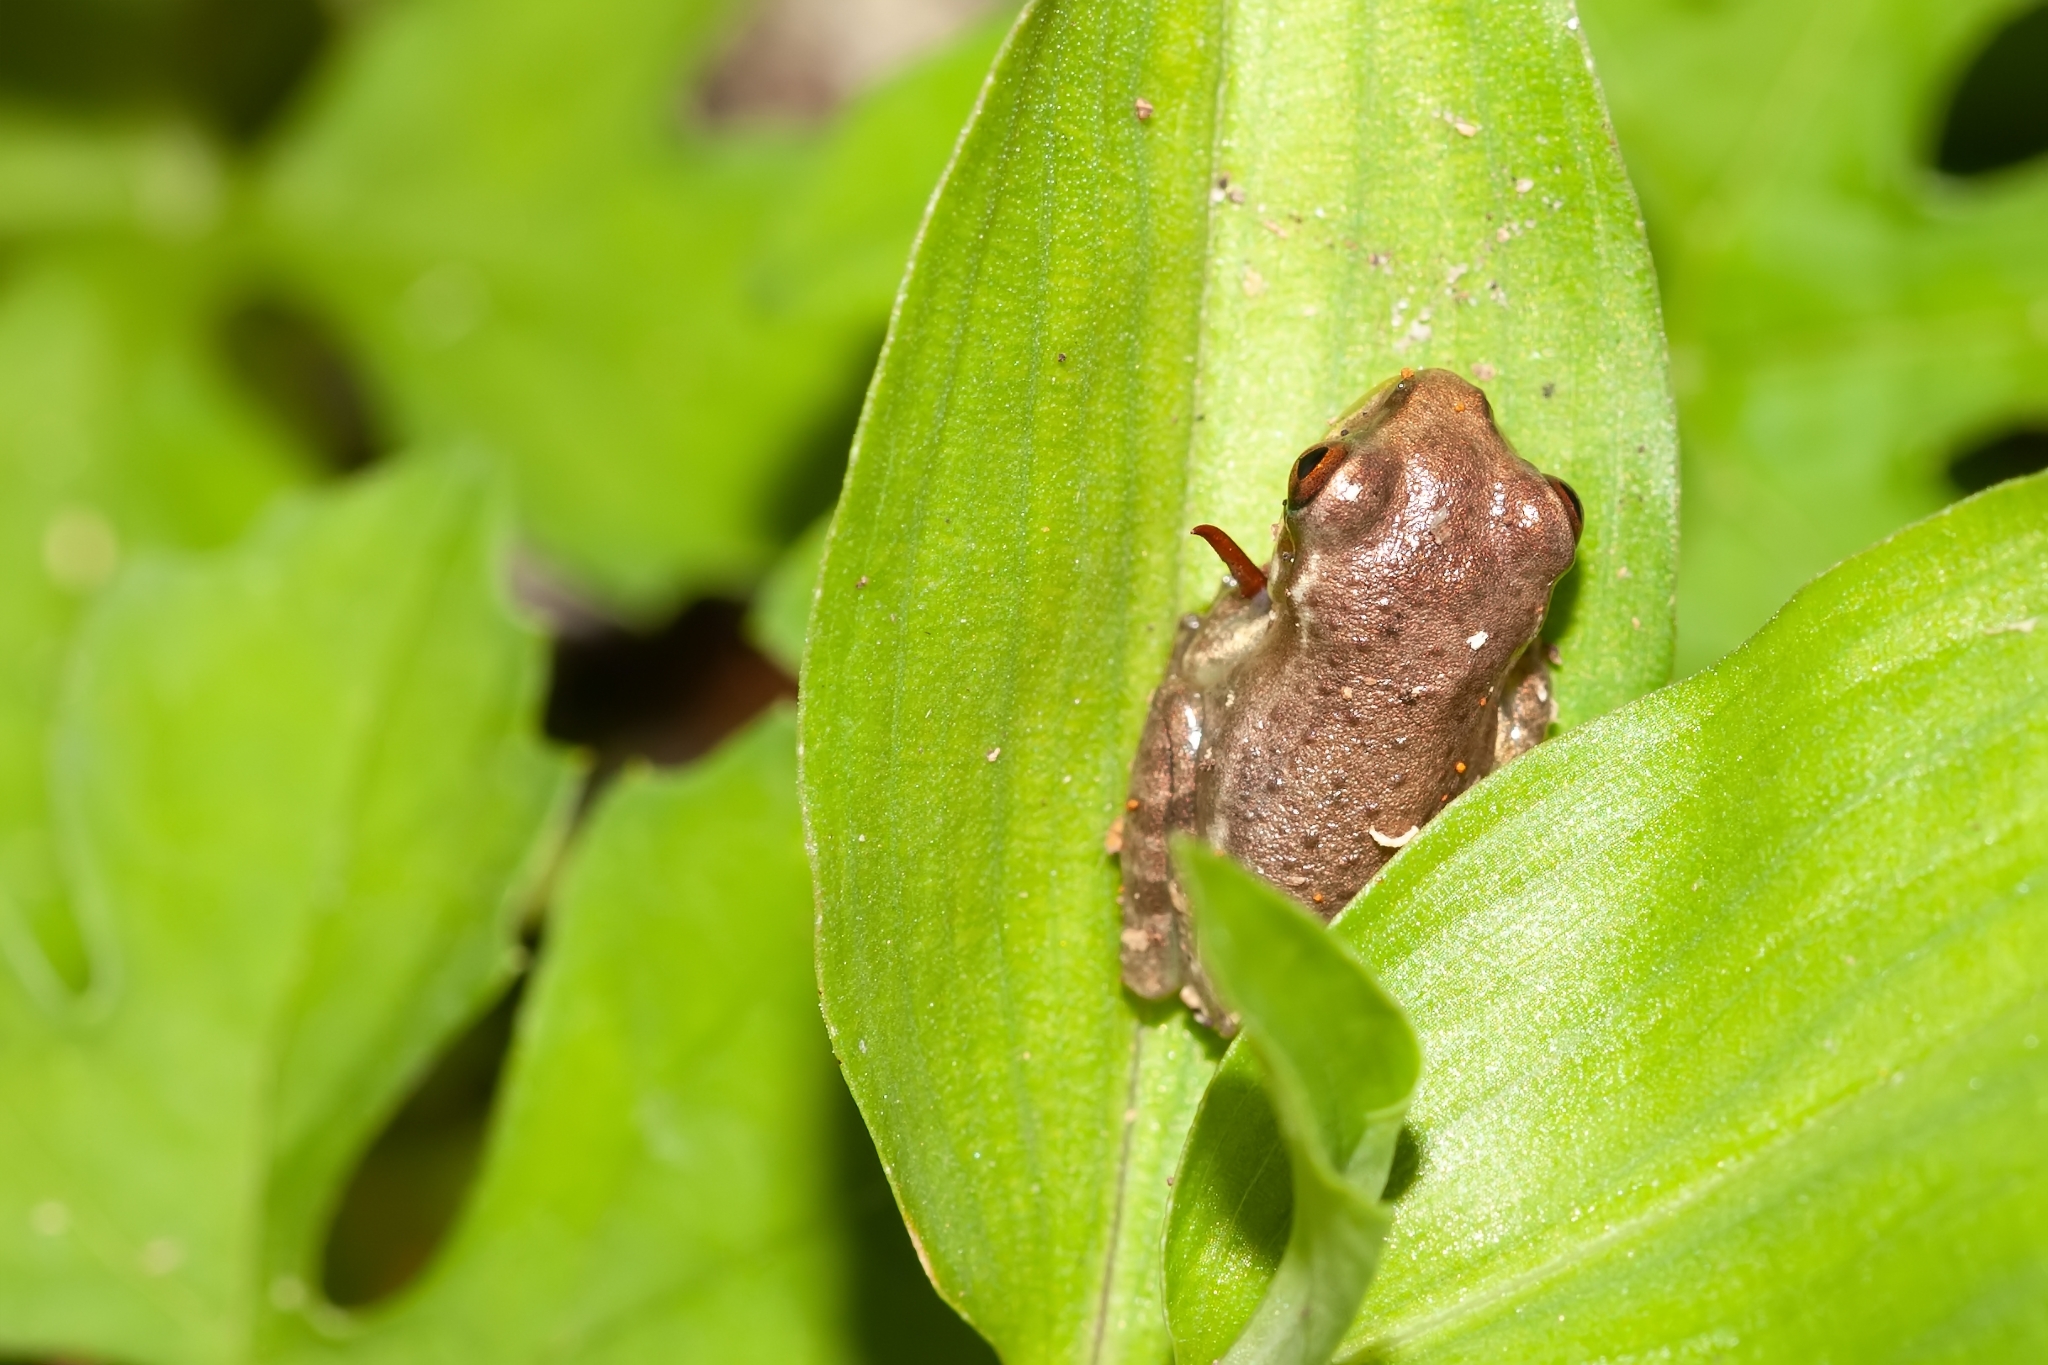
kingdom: Animalia
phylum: Chordata
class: Amphibia
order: Anura
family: Hylidae
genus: Osteopilus
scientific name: Osteopilus septentrionalis
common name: Cuban treefrog
